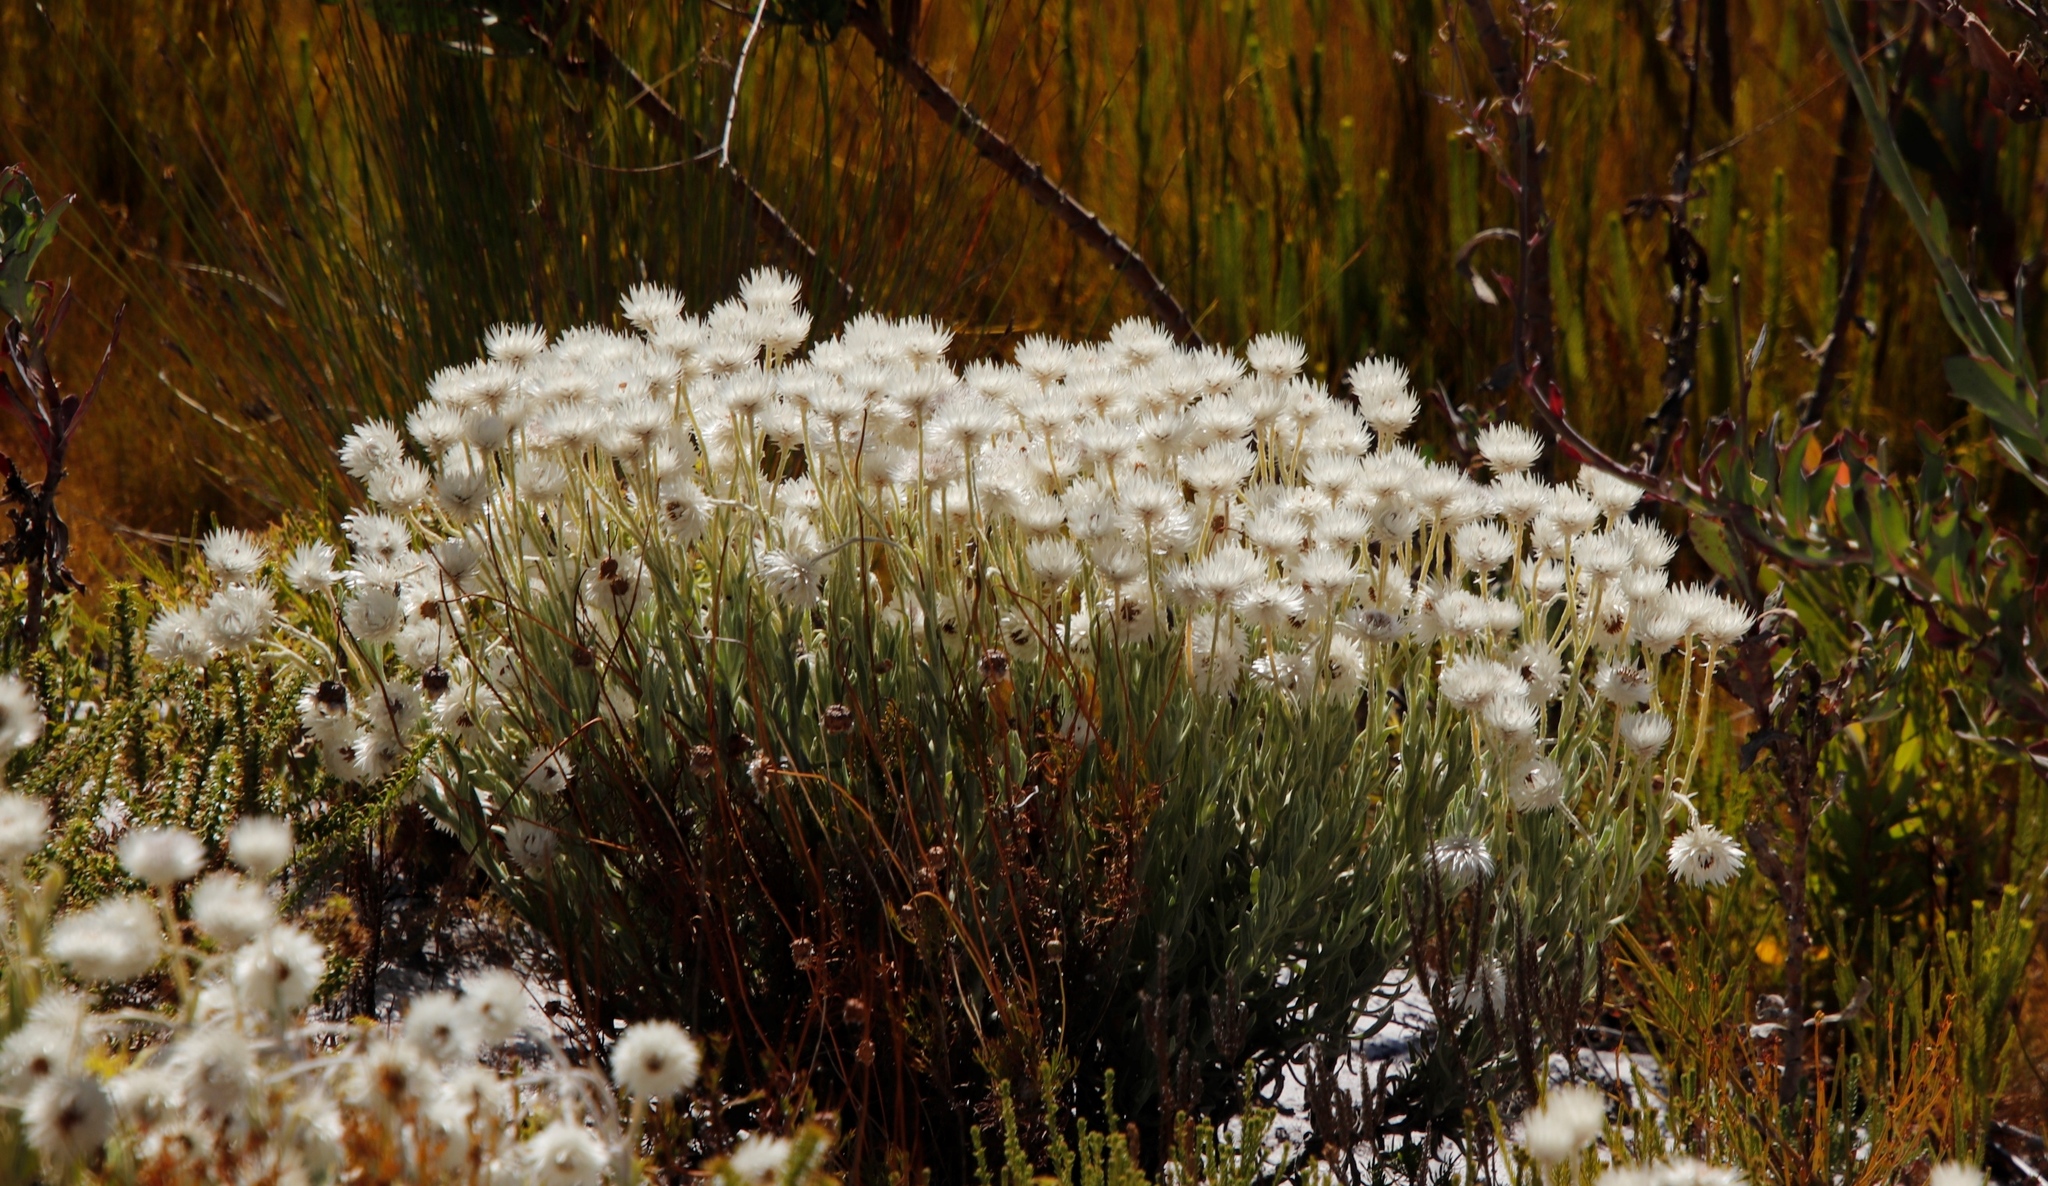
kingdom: Plantae
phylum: Tracheophyta
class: Magnoliopsida
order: Asterales
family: Asteraceae
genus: Syncarpha
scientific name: Syncarpha vestita
